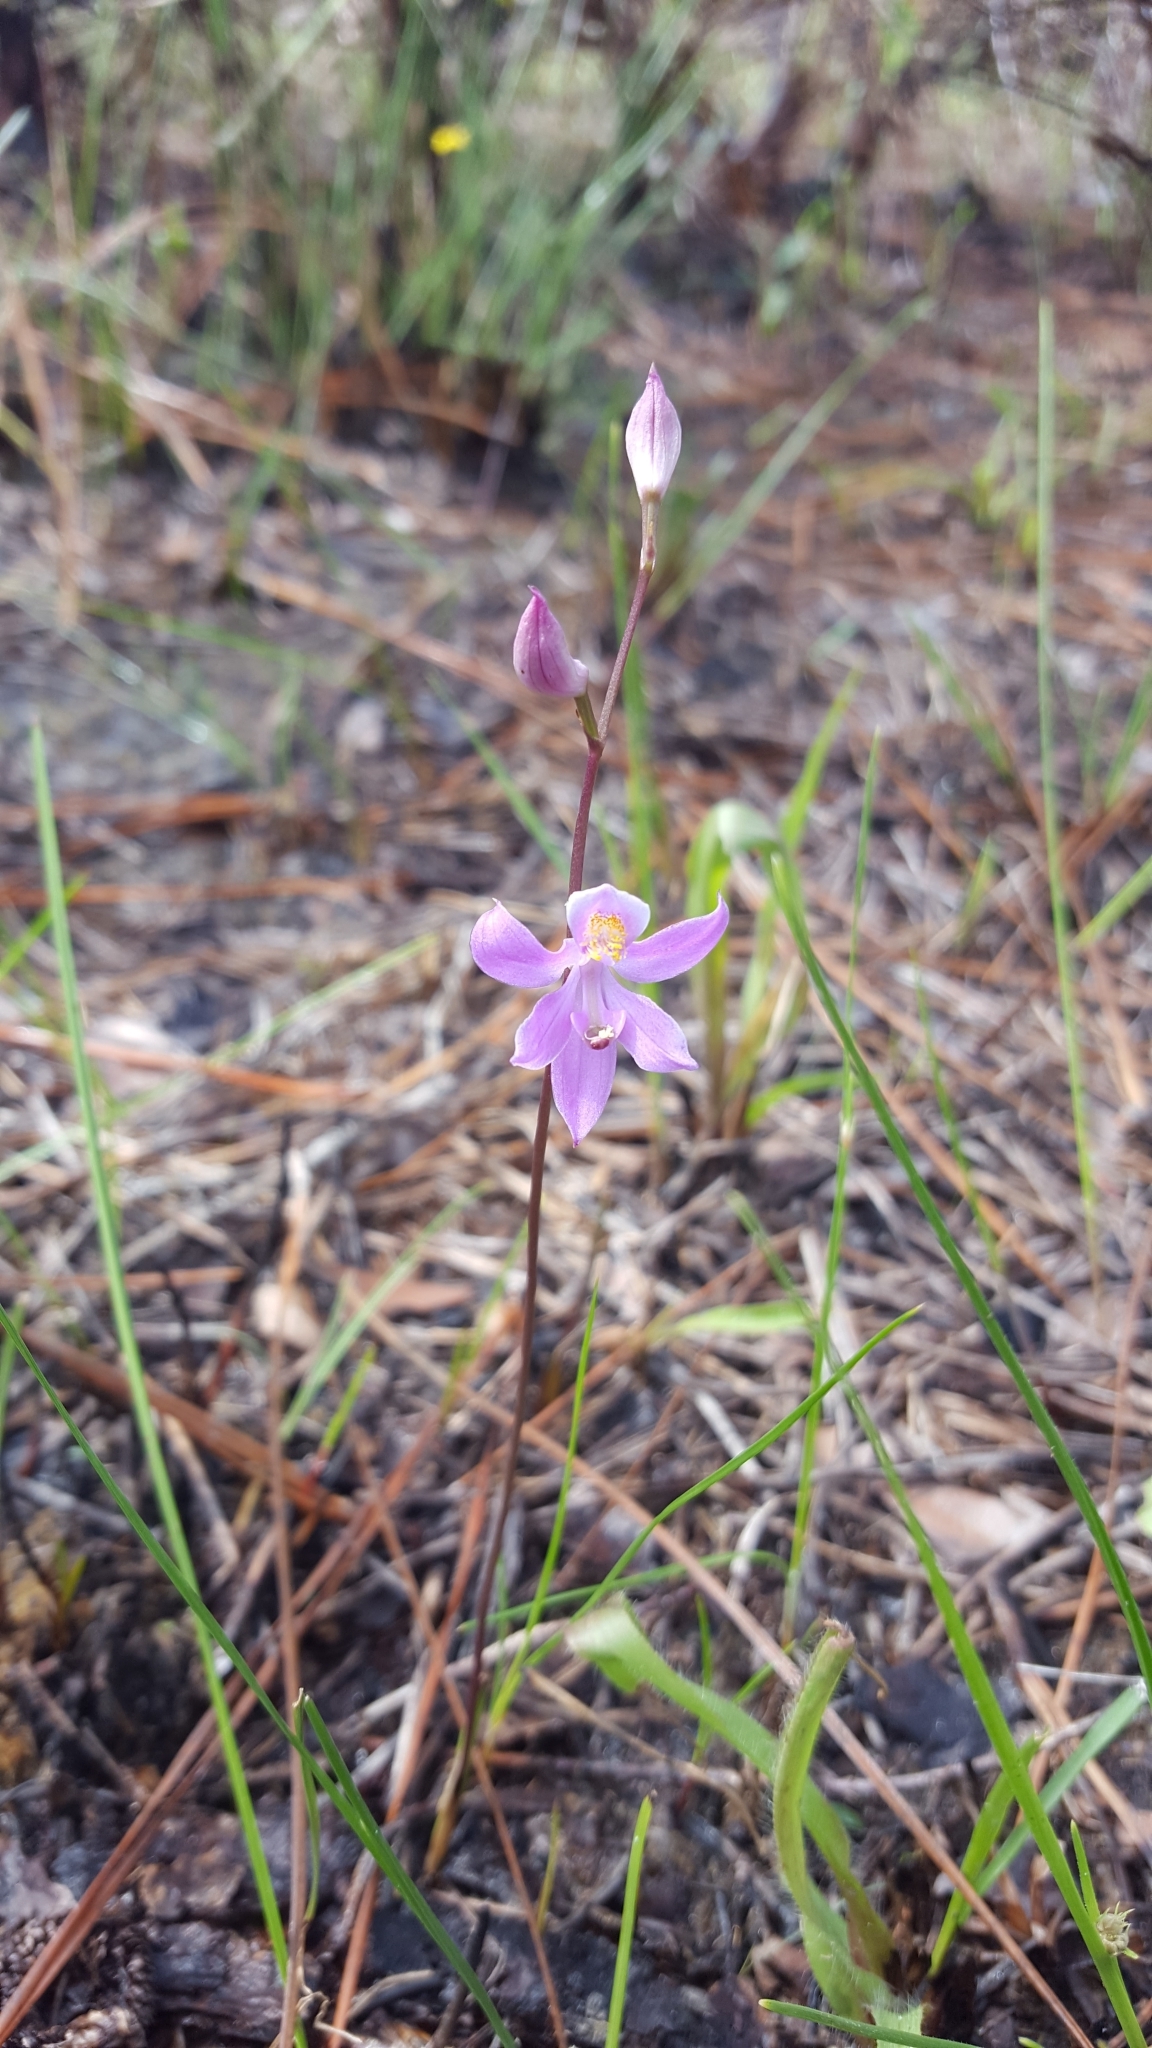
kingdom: Plantae
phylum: Tracheophyta
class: Liliopsida
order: Asparagales
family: Orchidaceae
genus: Calopogon
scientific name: Calopogon multiflorus
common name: Many-flowered grass-pink orchid
